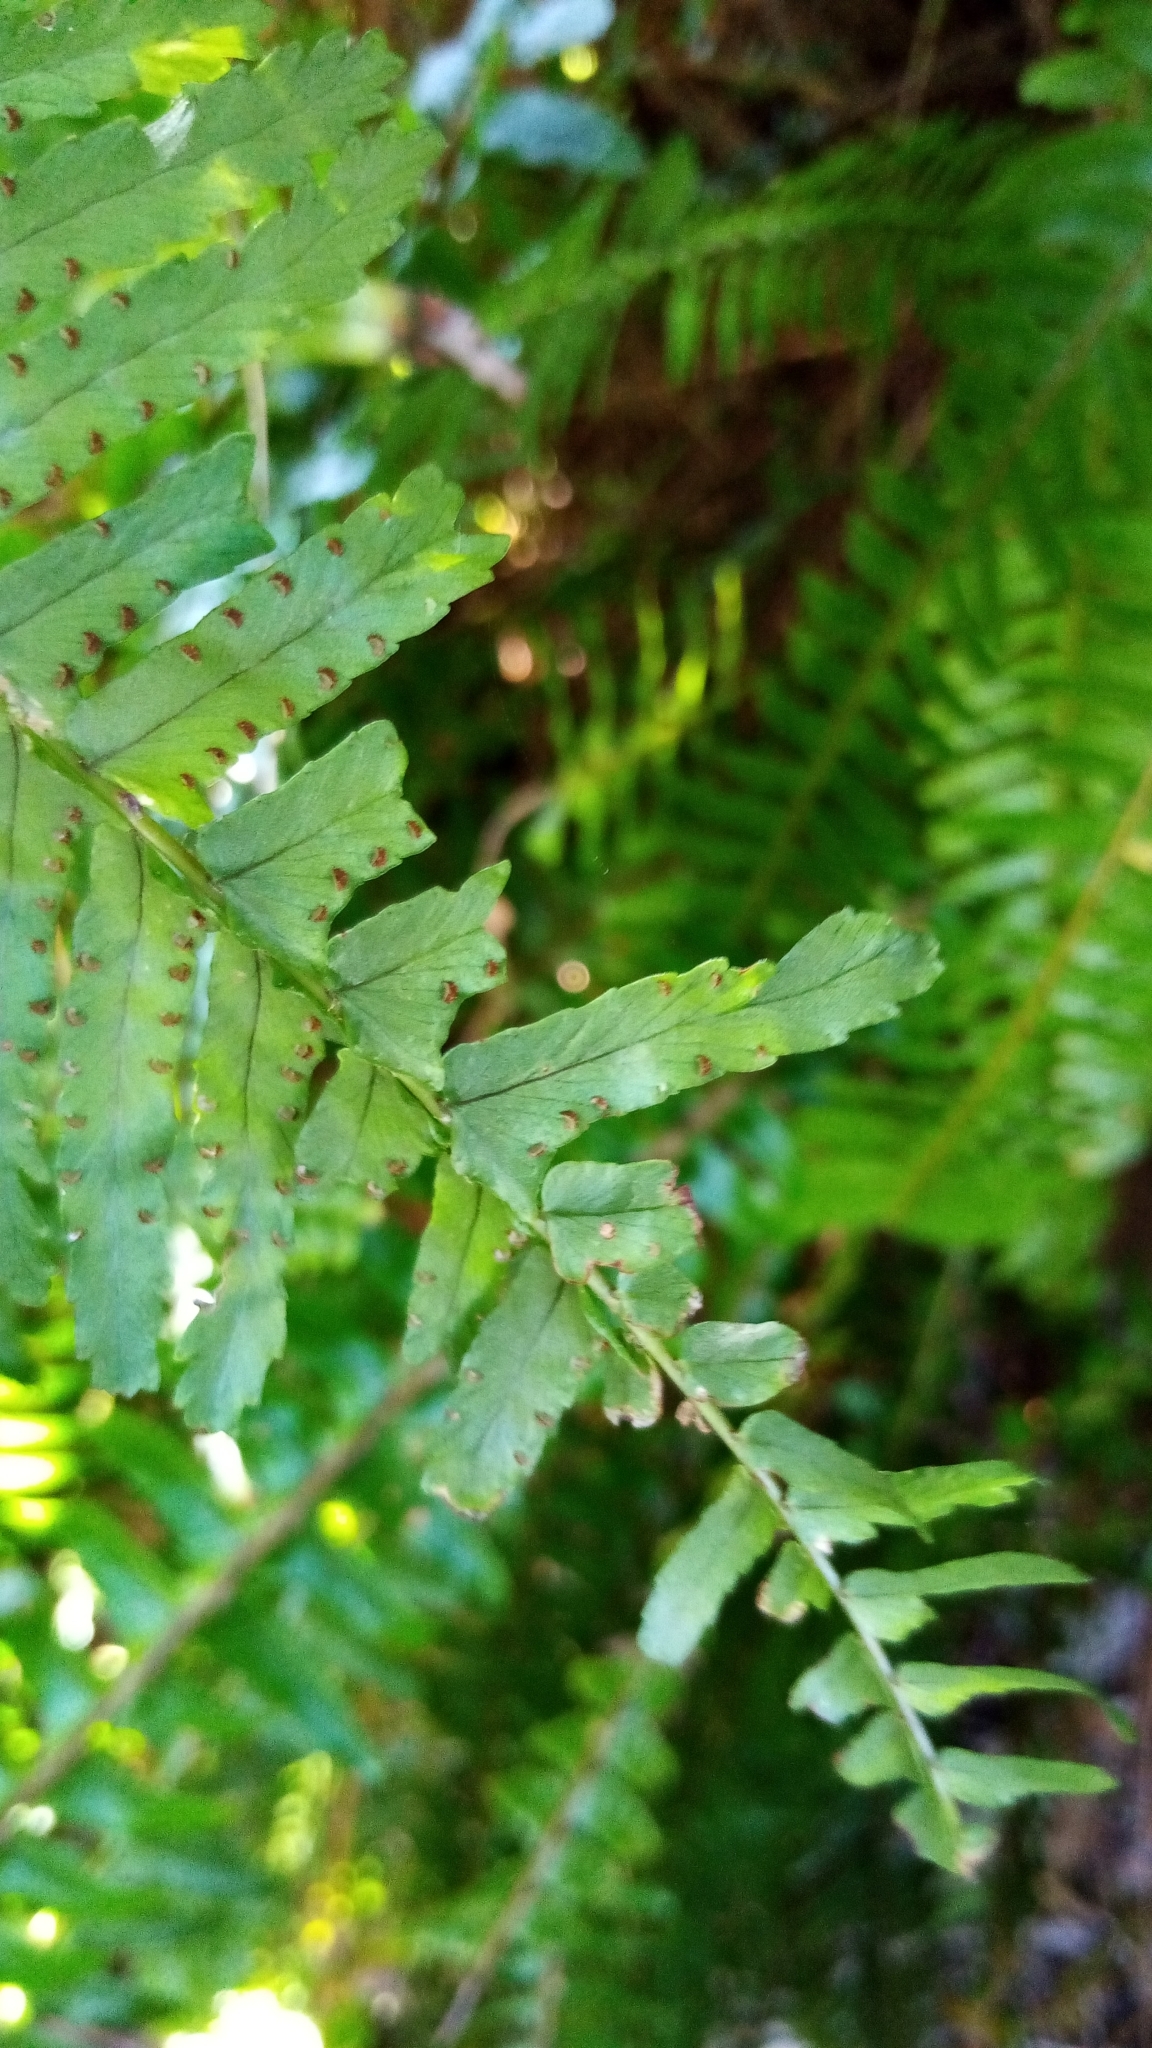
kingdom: Plantae
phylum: Tracheophyta
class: Polypodiopsida
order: Polypodiales
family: Nephrolepidaceae
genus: Nephrolepis
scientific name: Nephrolepis cordifolia
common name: Narrow swordfern
